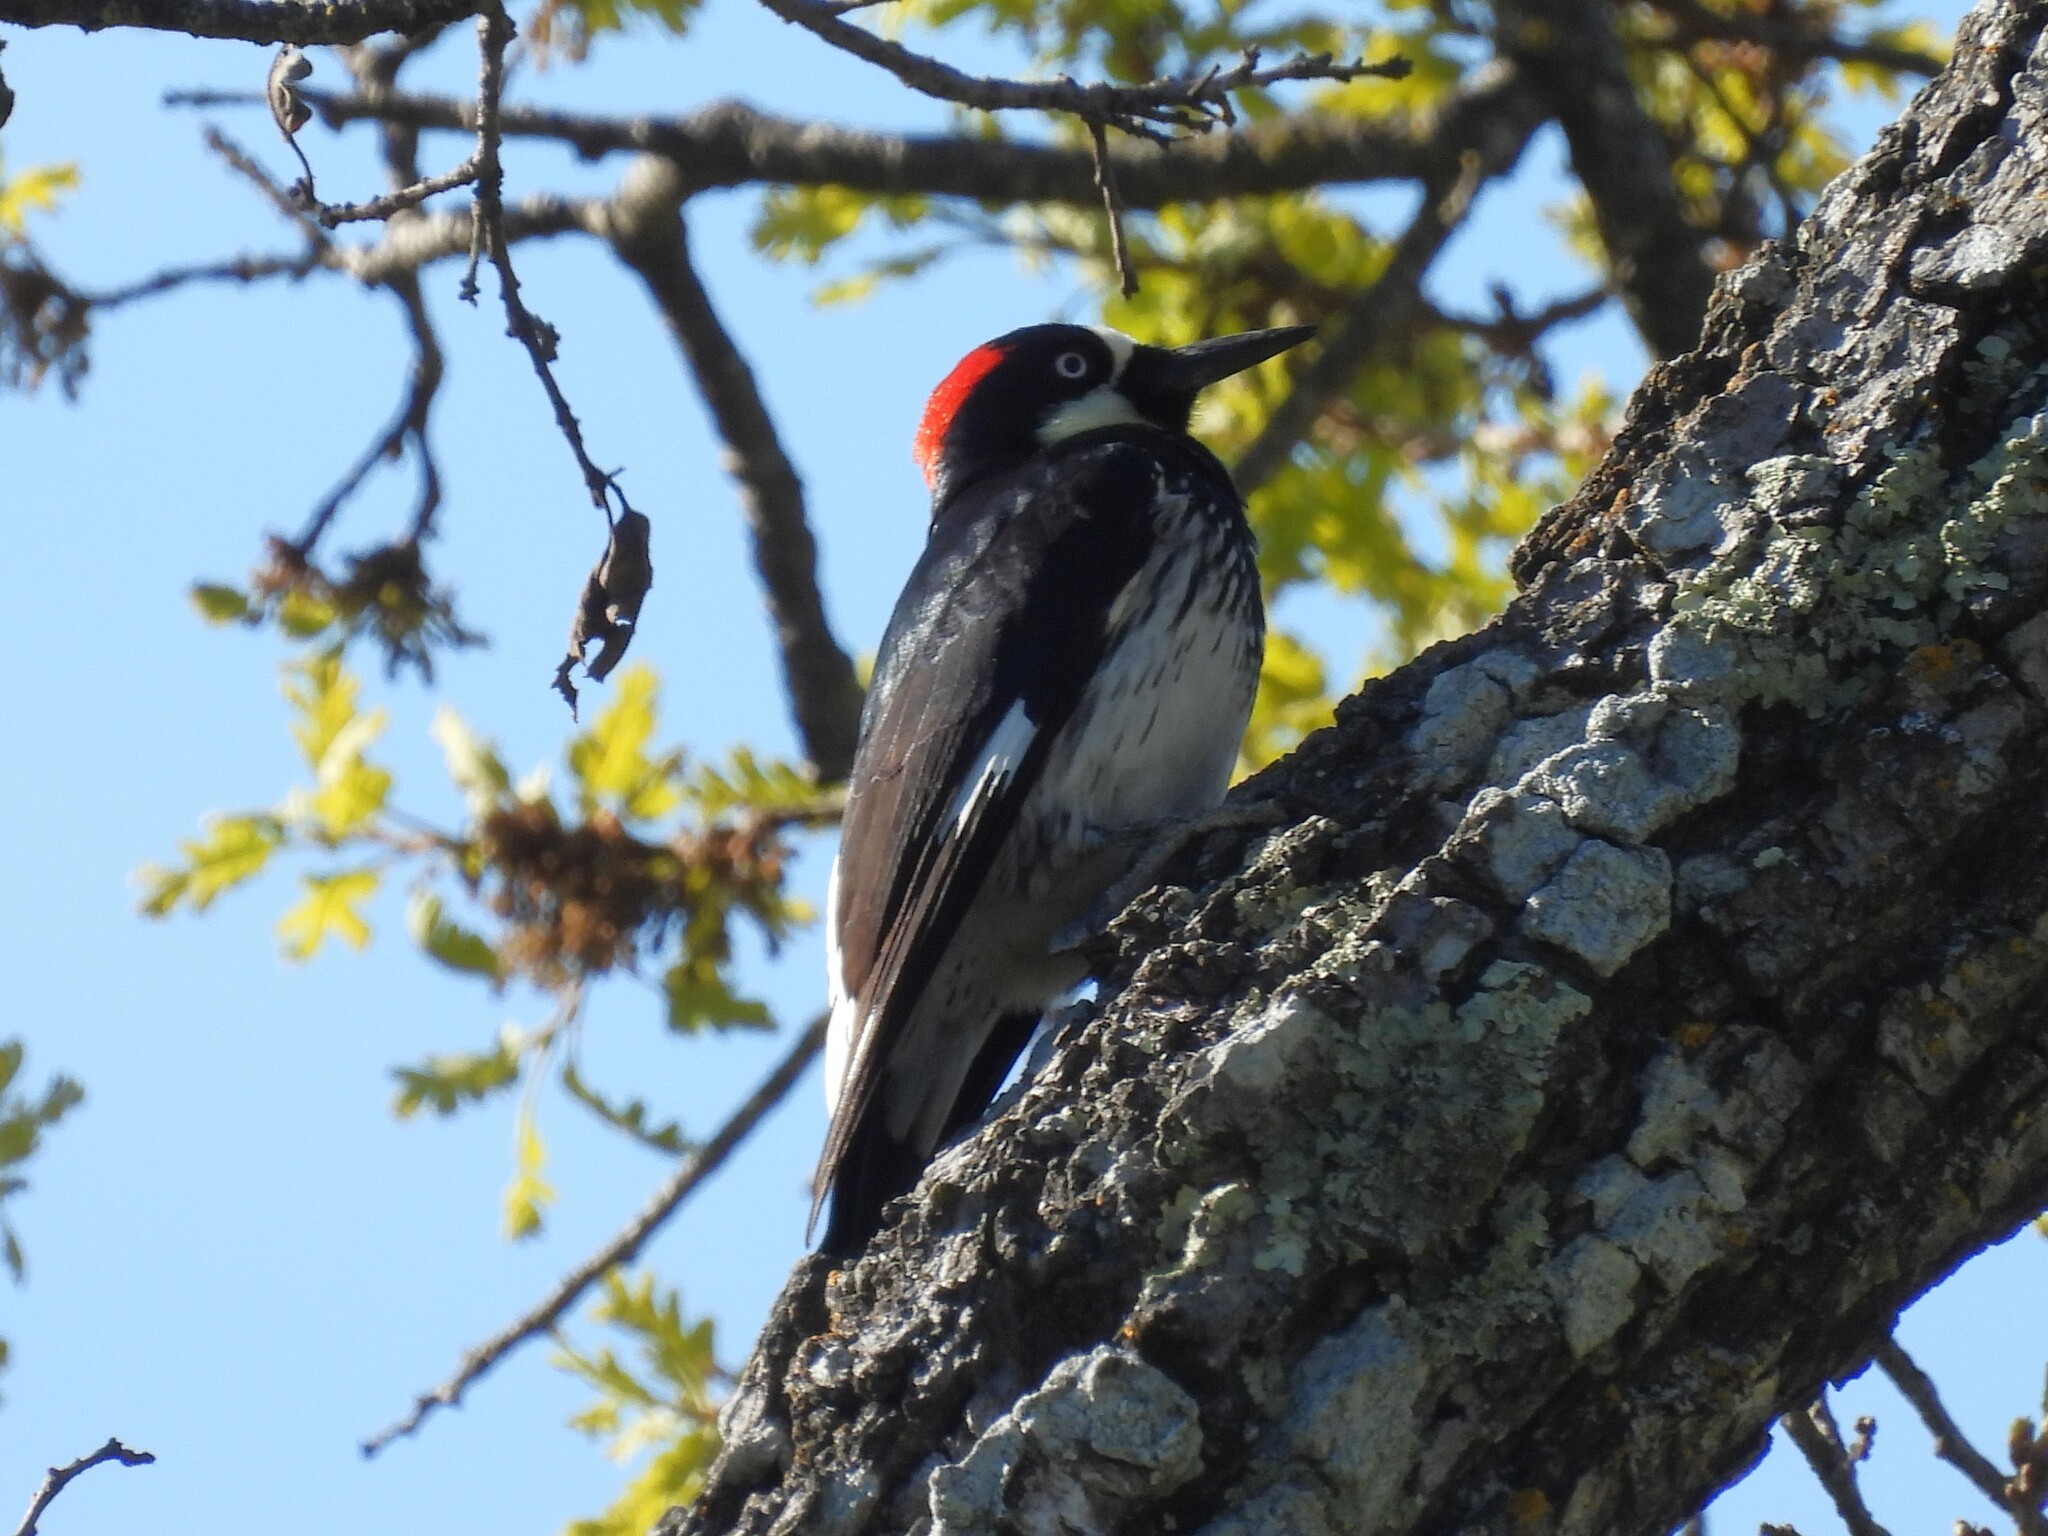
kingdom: Animalia
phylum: Chordata
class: Aves
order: Piciformes
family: Picidae
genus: Melanerpes
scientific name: Melanerpes formicivorus
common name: Acorn woodpecker
